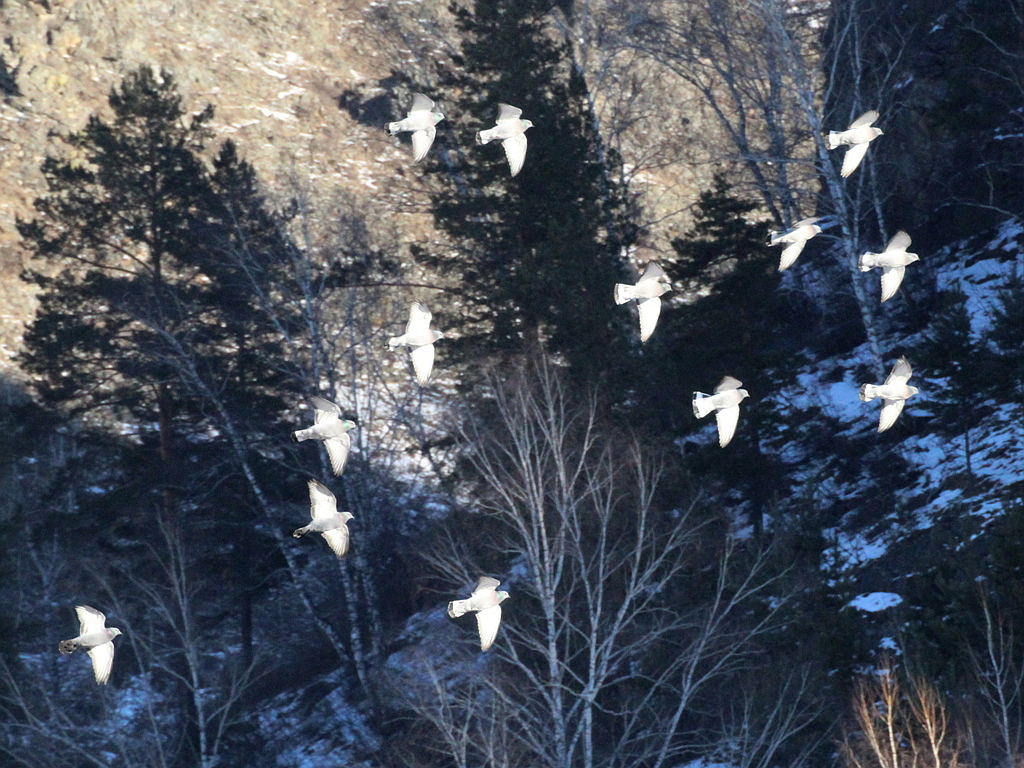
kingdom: Animalia
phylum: Chordata
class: Aves
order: Columbiformes
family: Columbidae
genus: Columba
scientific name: Columba rupestris
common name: Hill pigeon
